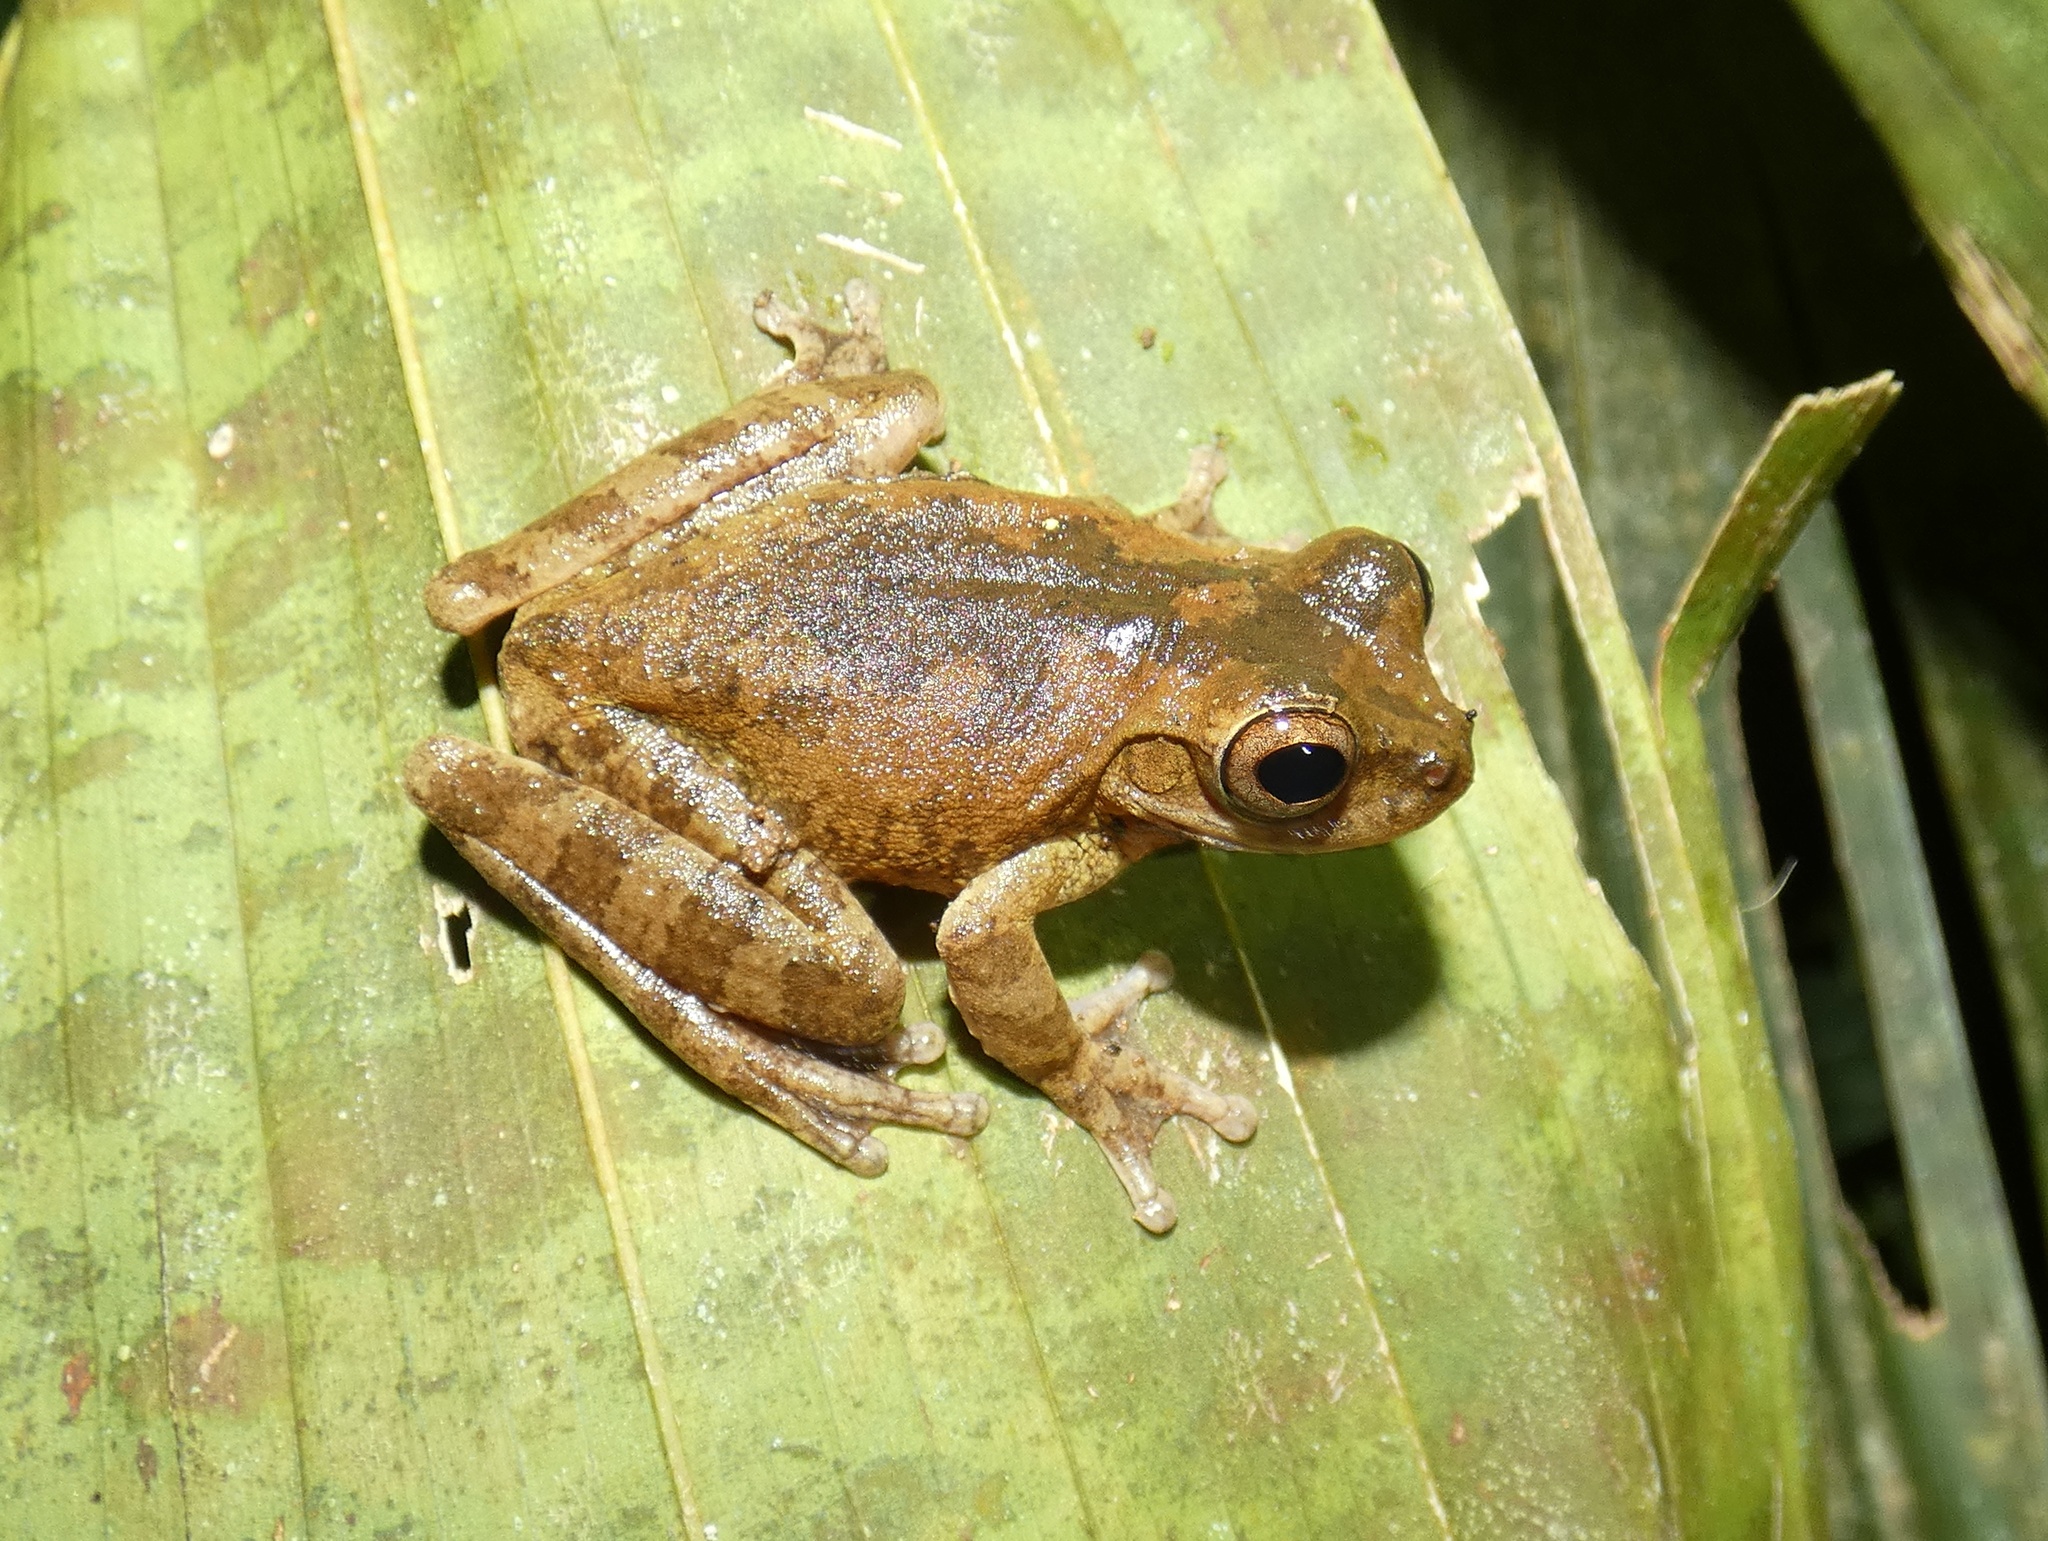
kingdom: Animalia
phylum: Chordata
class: Amphibia
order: Anura
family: Hylidae
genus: Smilisca
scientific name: Smilisca sila
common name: Panama cross-banded treefrog
